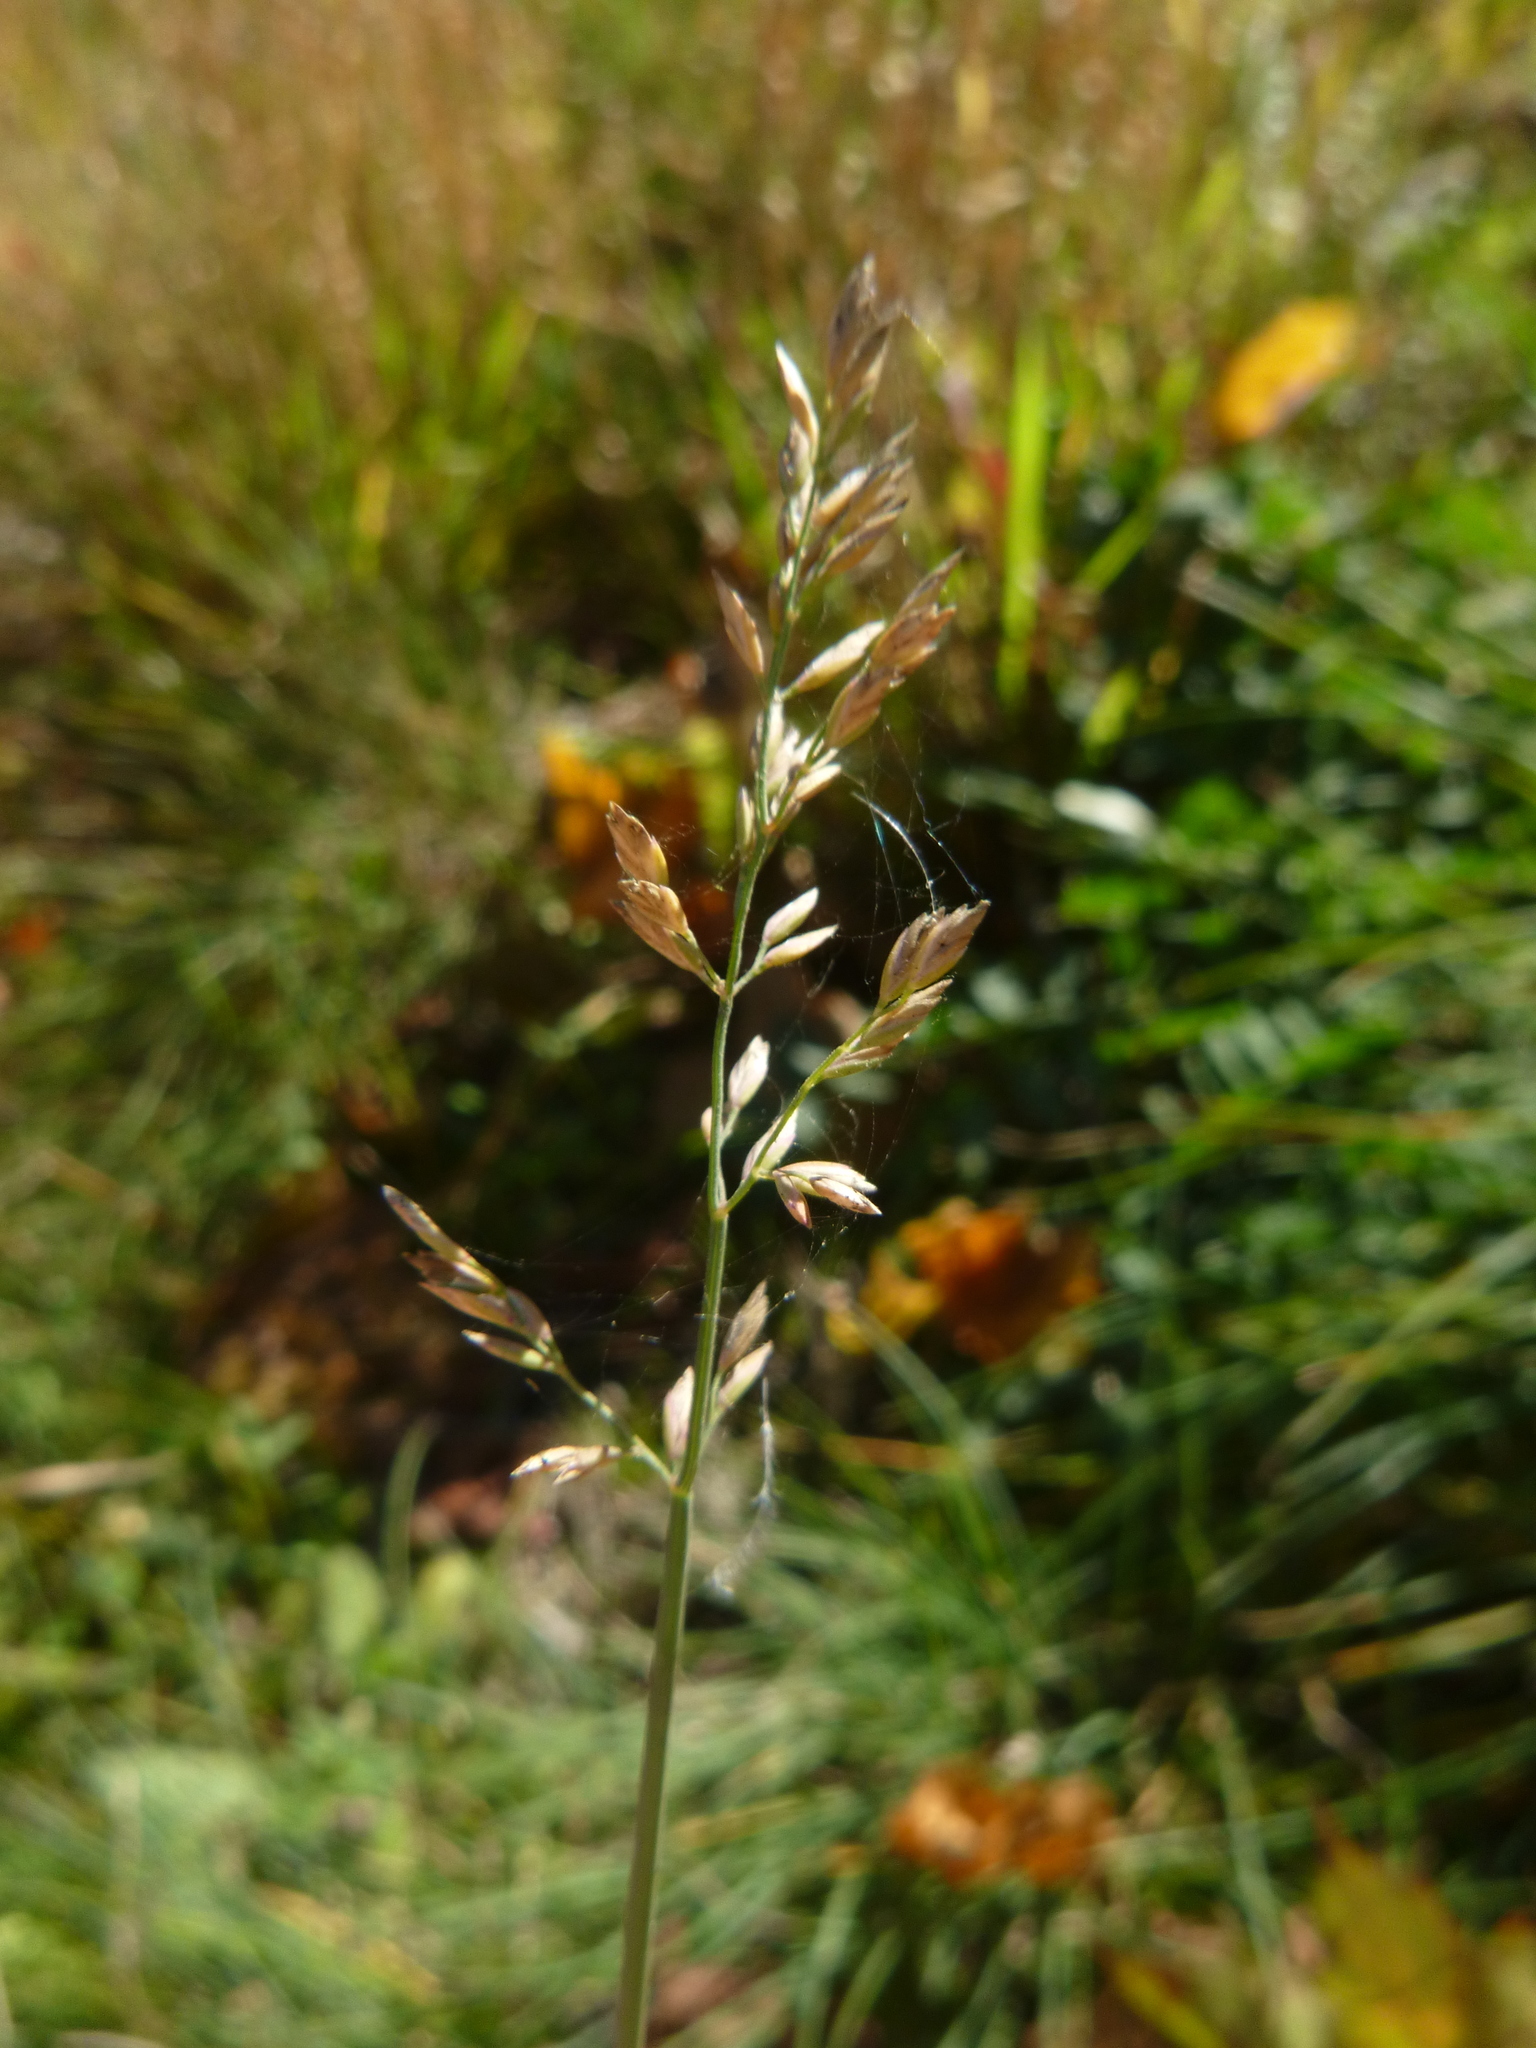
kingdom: Plantae
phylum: Tracheophyta
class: Liliopsida
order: Poales
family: Poaceae
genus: Poa
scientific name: Poa compressa
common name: Canada bluegrass
